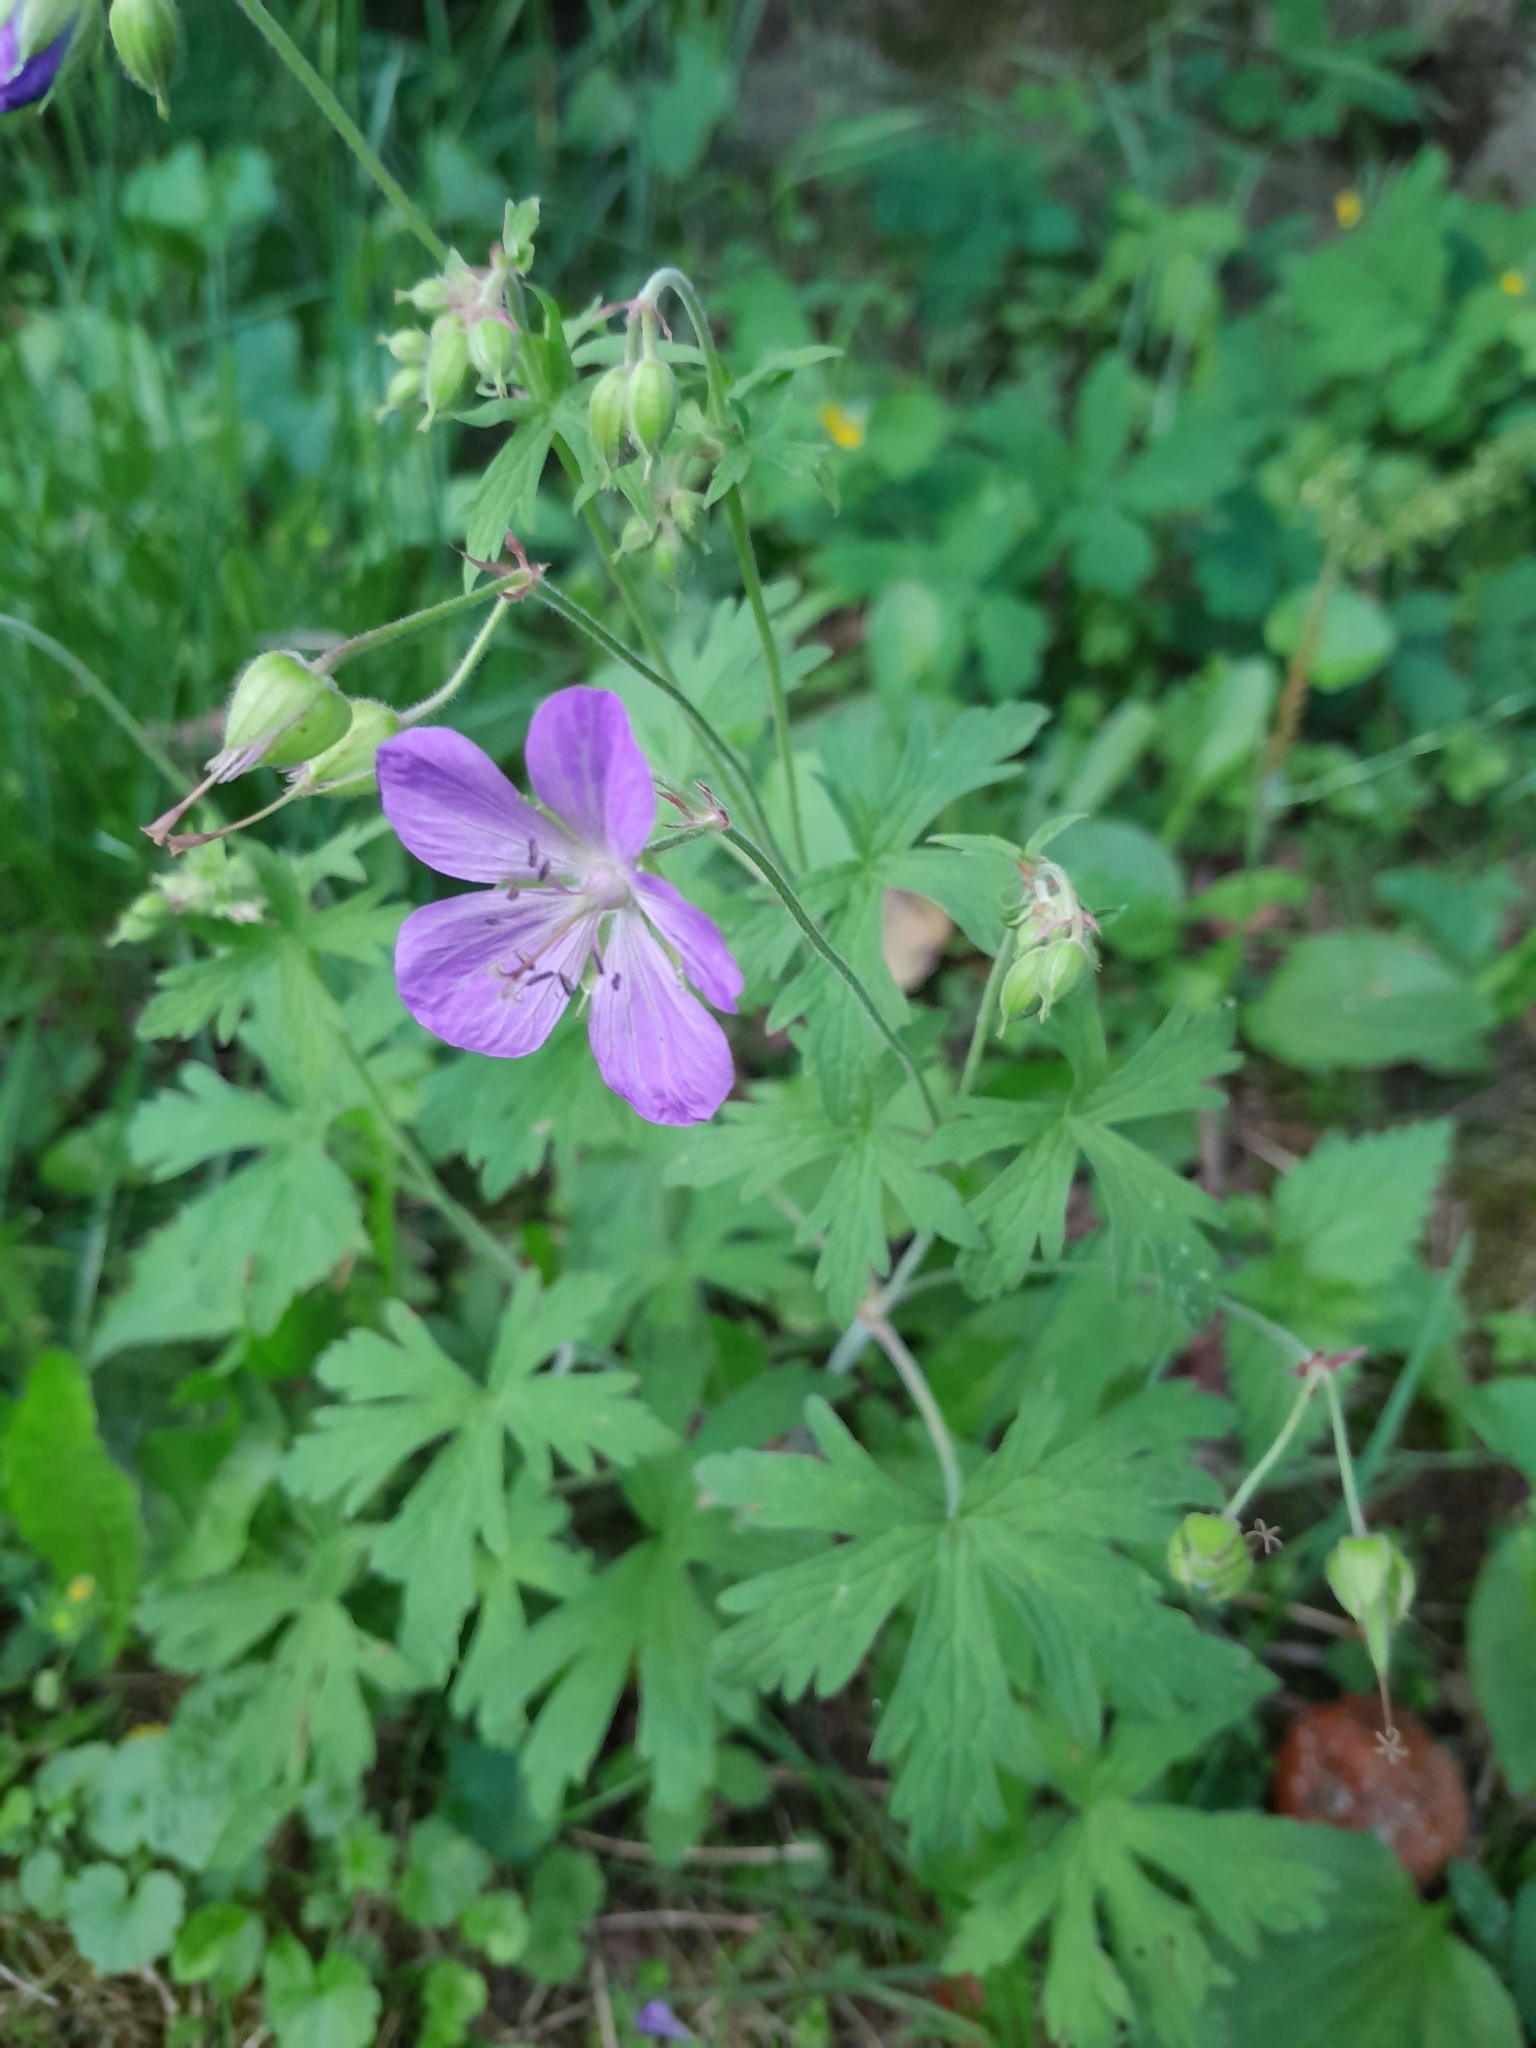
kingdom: Plantae
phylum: Tracheophyta
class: Magnoliopsida
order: Geraniales
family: Geraniaceae
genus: Geranium
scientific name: Geranium pratense
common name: Meadow crane's-bill
